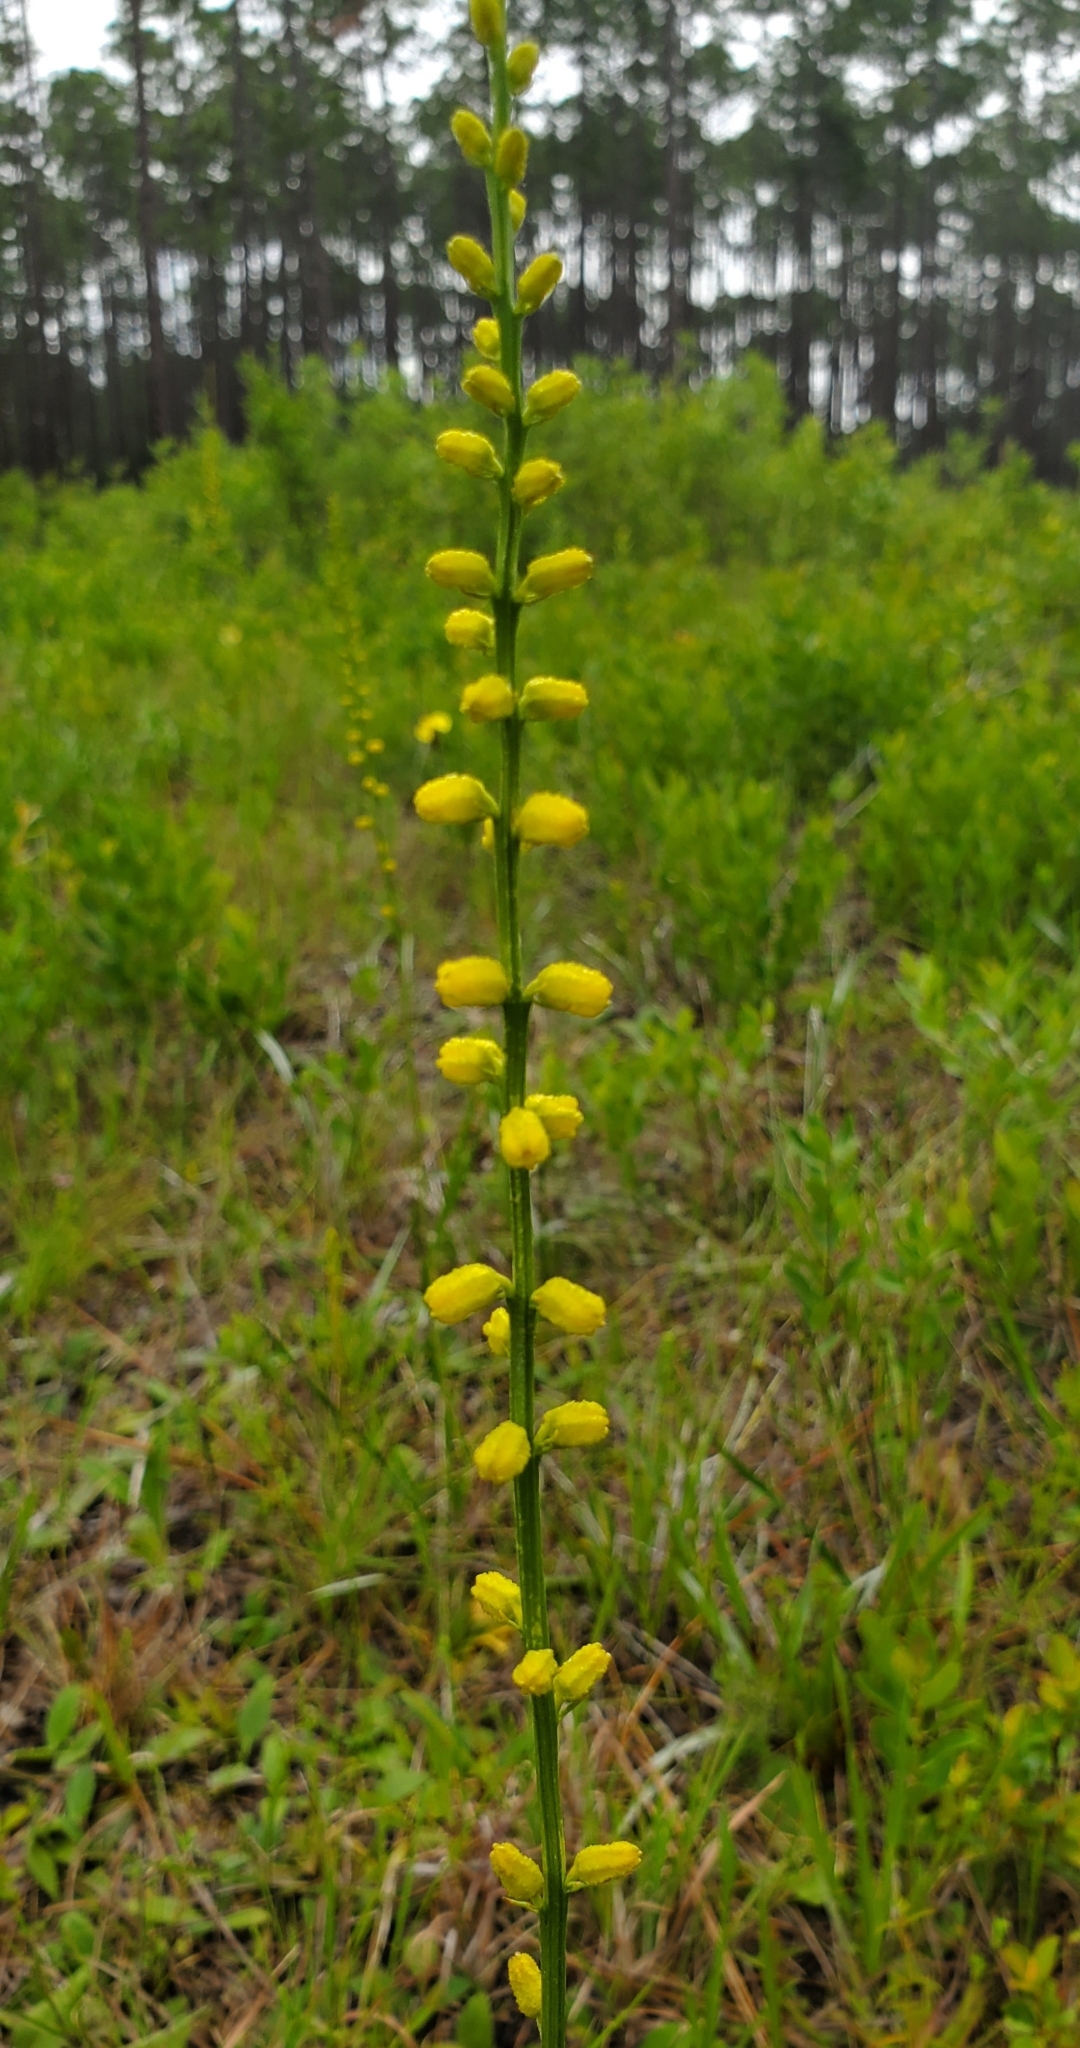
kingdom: Plantae
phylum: Tracheophyta
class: Liliopsida
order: Dioscoreales
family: Nartheciaceae
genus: Aletris
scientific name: Aletris aurea
